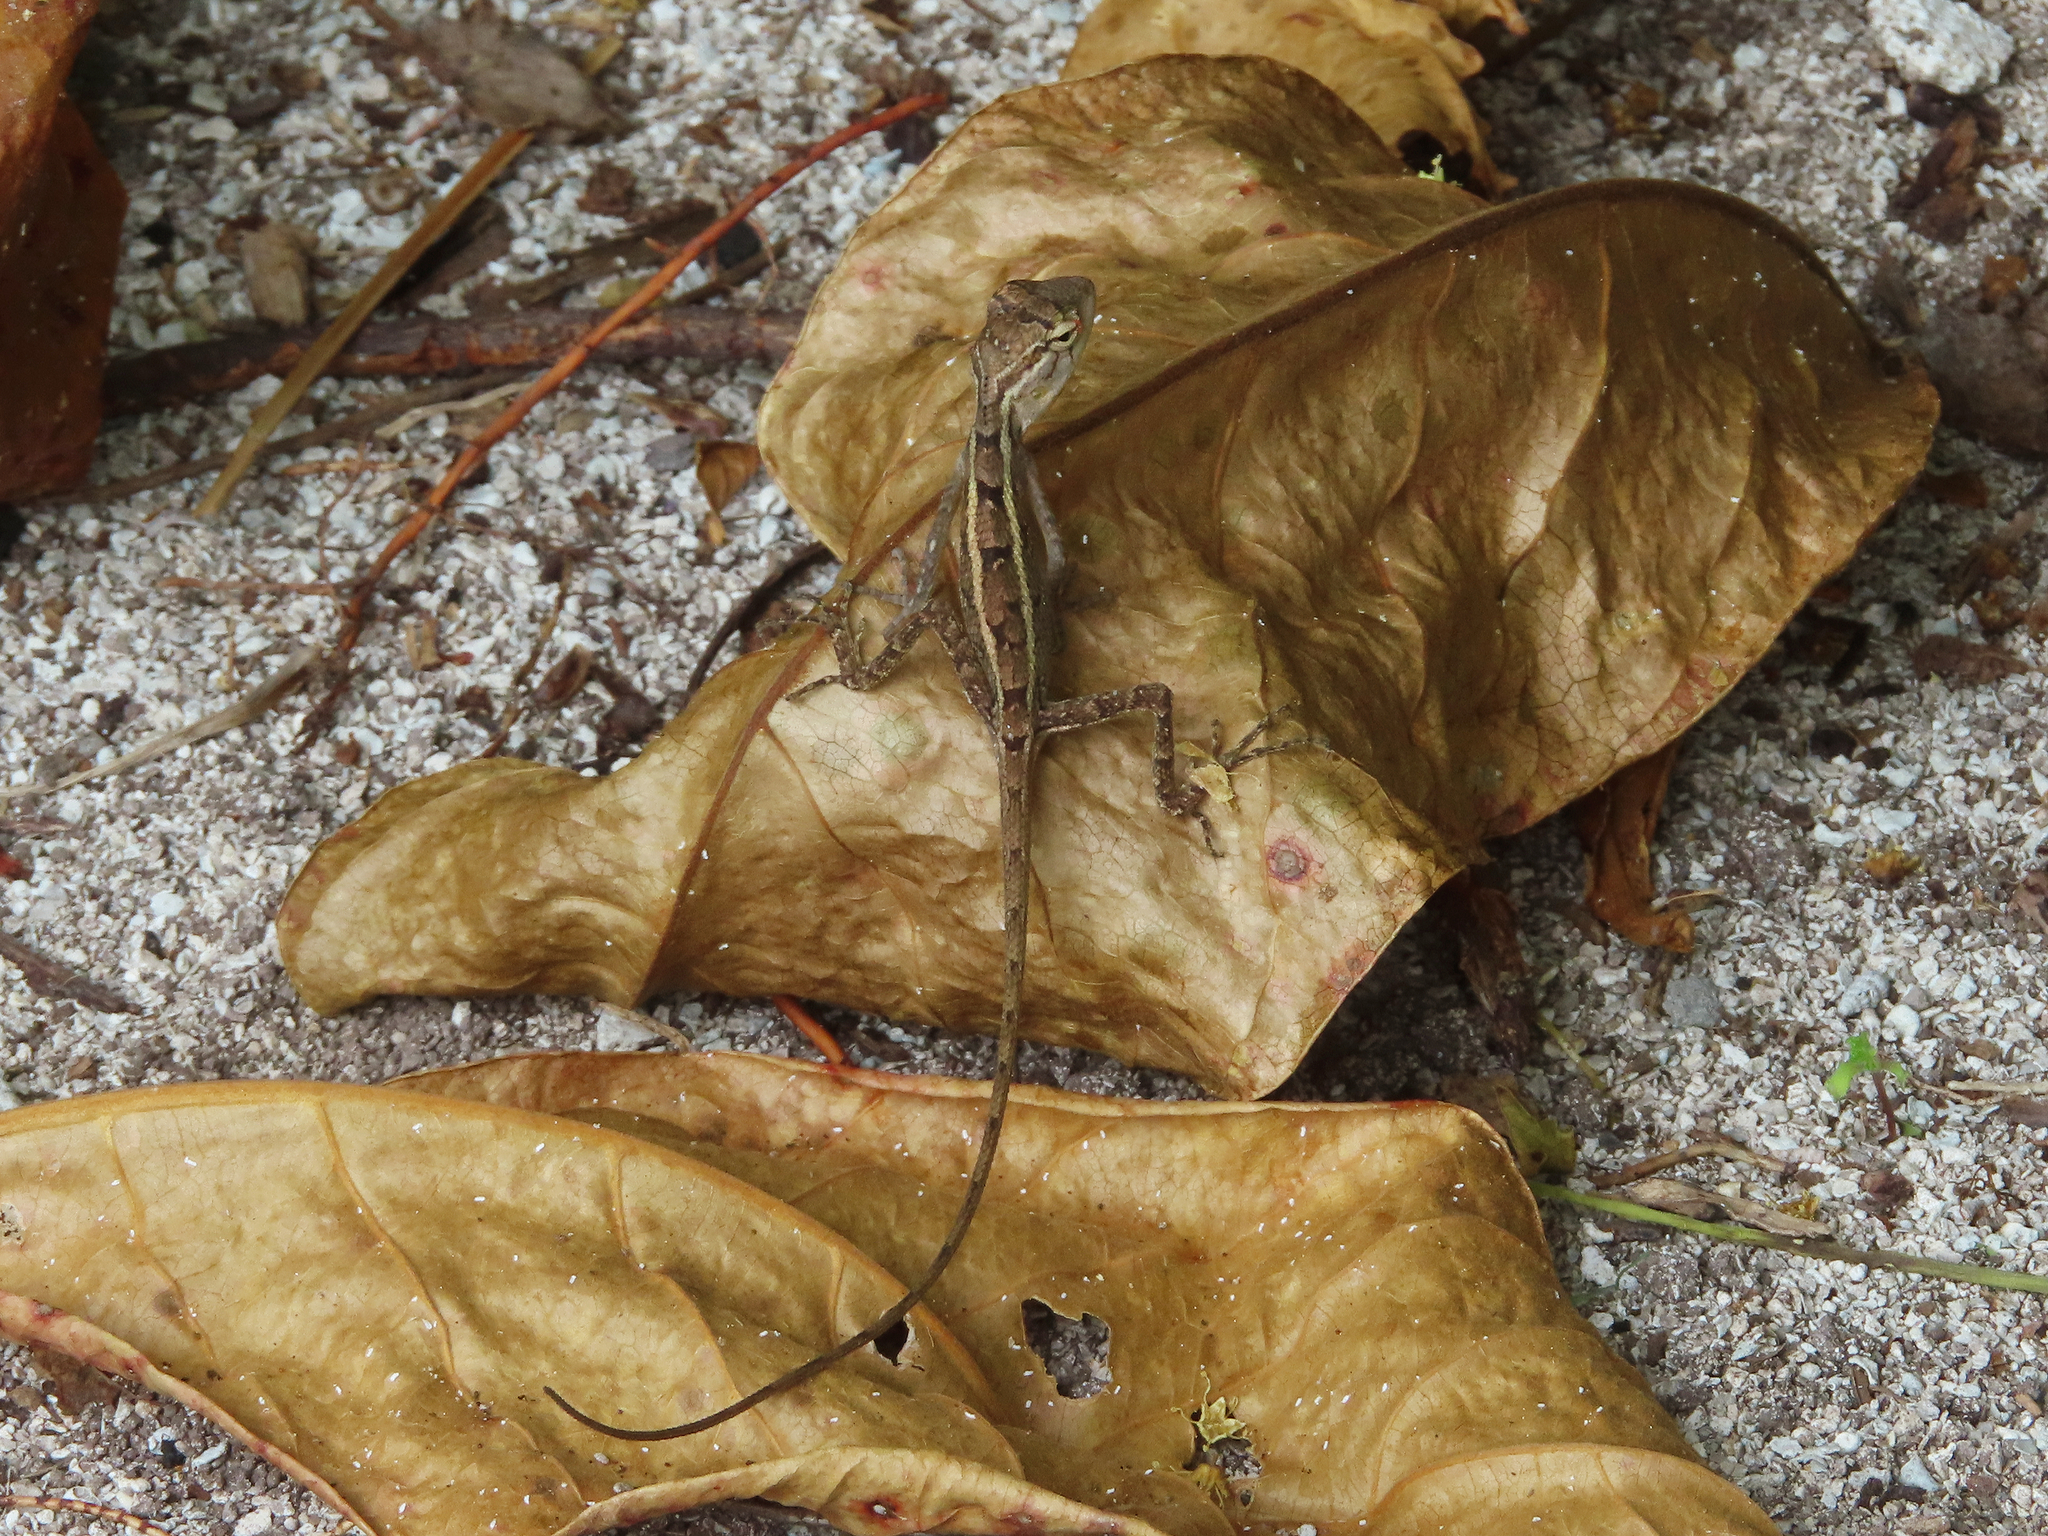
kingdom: Animalia
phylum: Chordata
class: Squamata
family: Agamidae
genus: Calotes
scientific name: Calotes versicolor
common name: Oriental garden lizard
